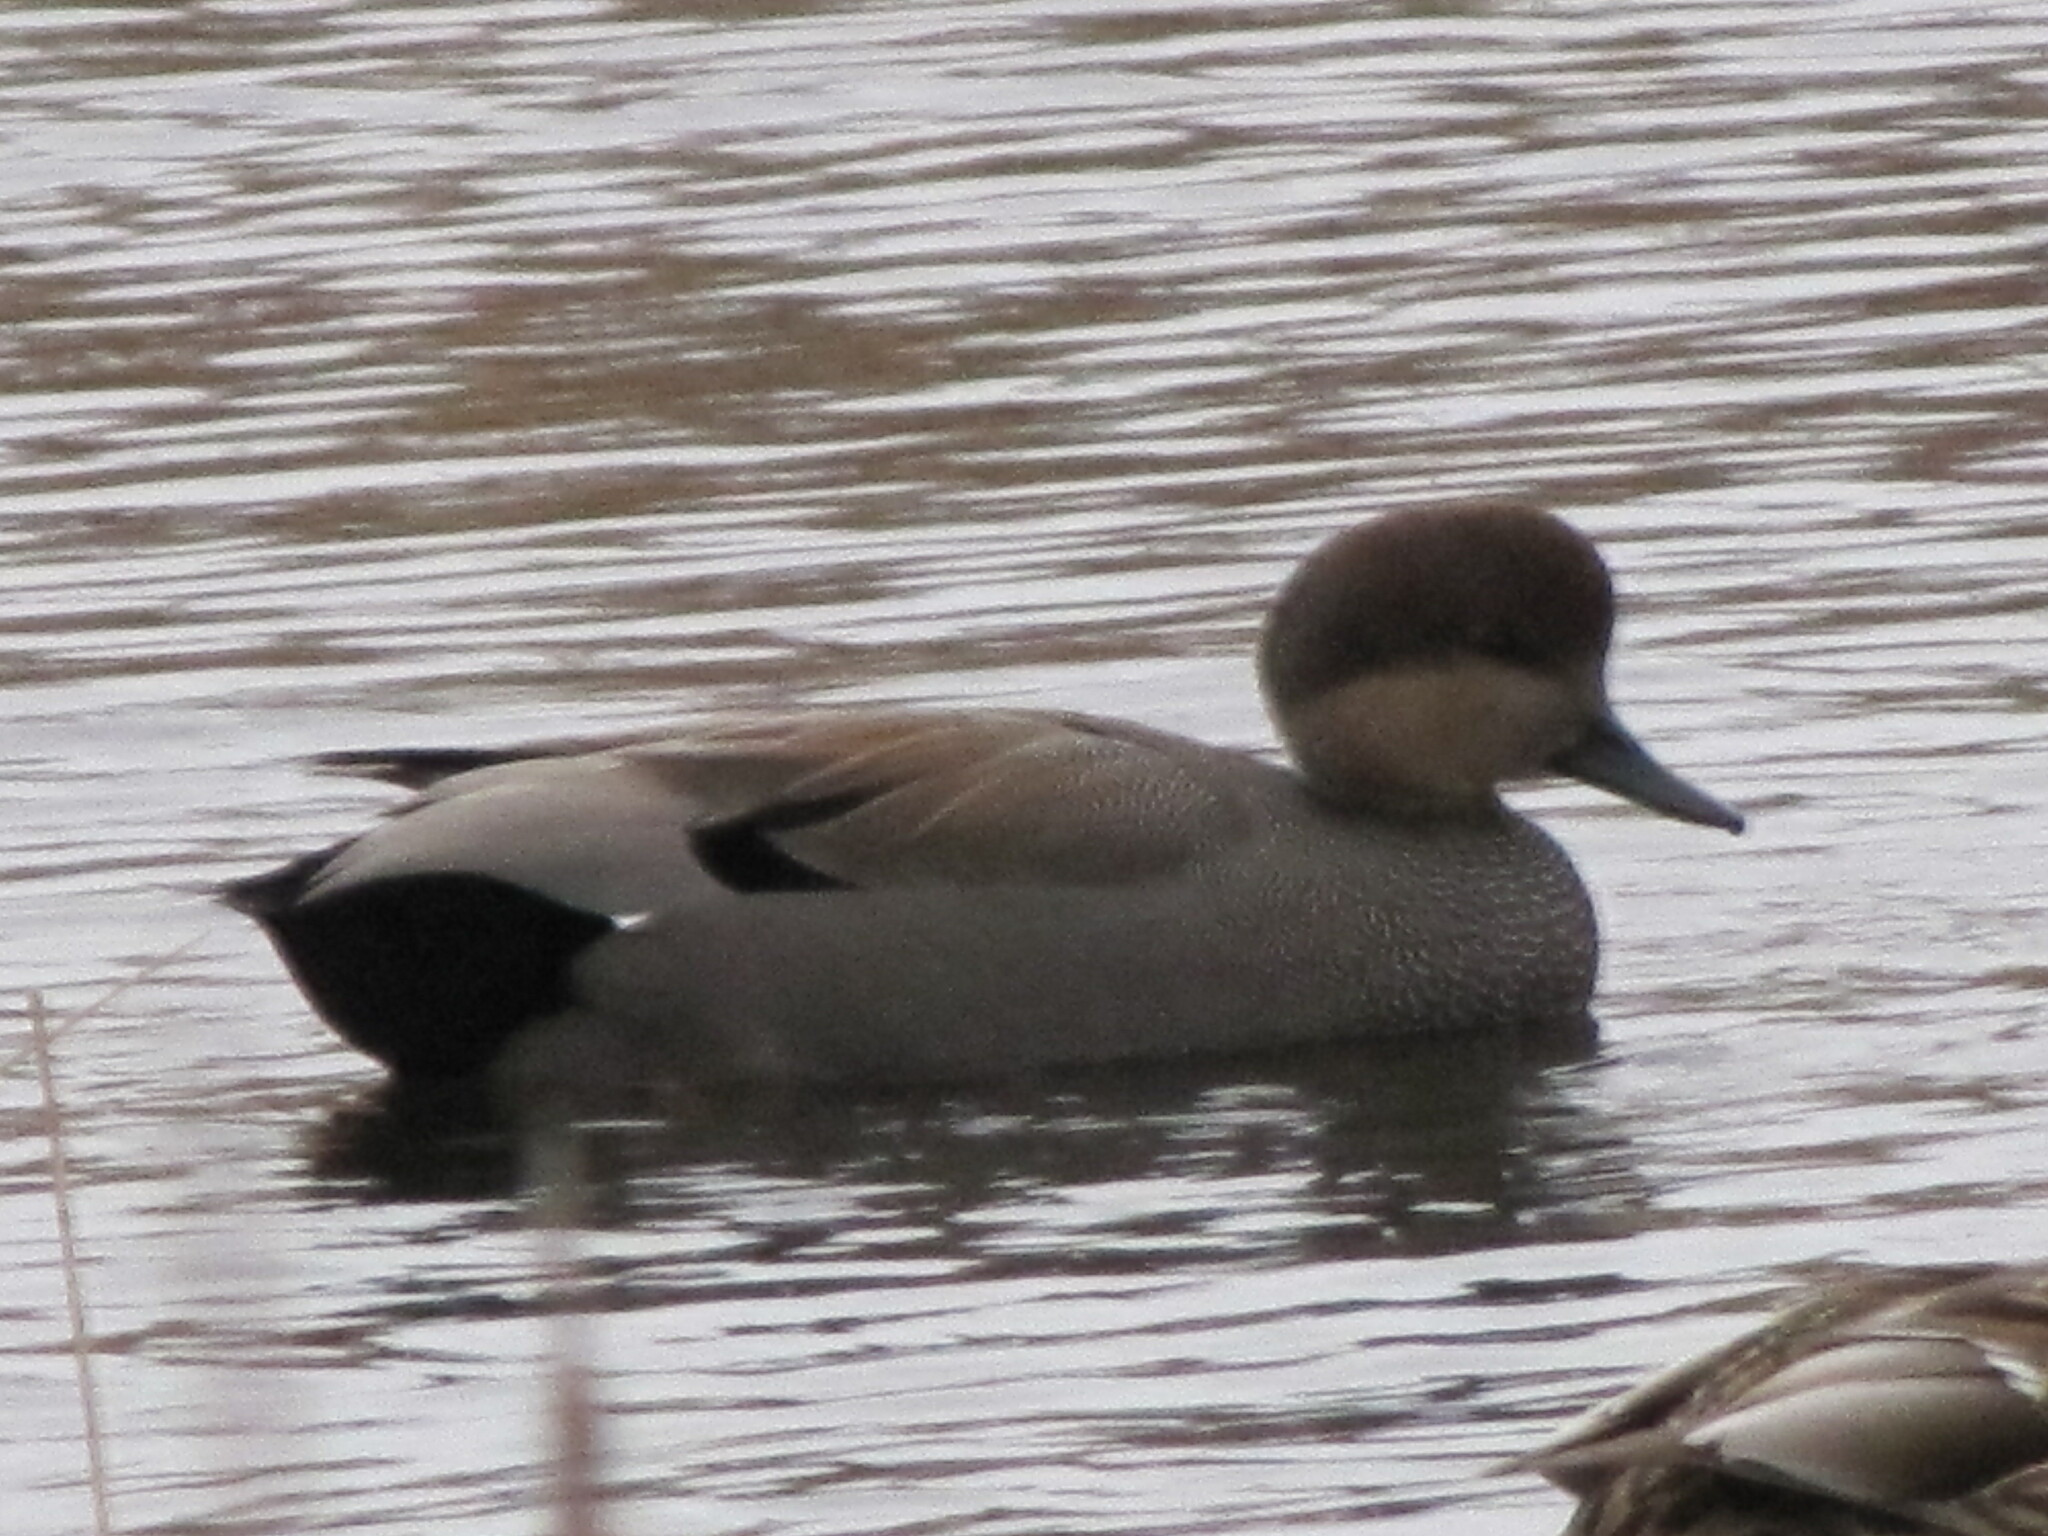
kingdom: Animalia
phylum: Chordata
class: Aves
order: Anseriformes
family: Anatidae
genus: Mareca
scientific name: Mareca strepera
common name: Gadwall
